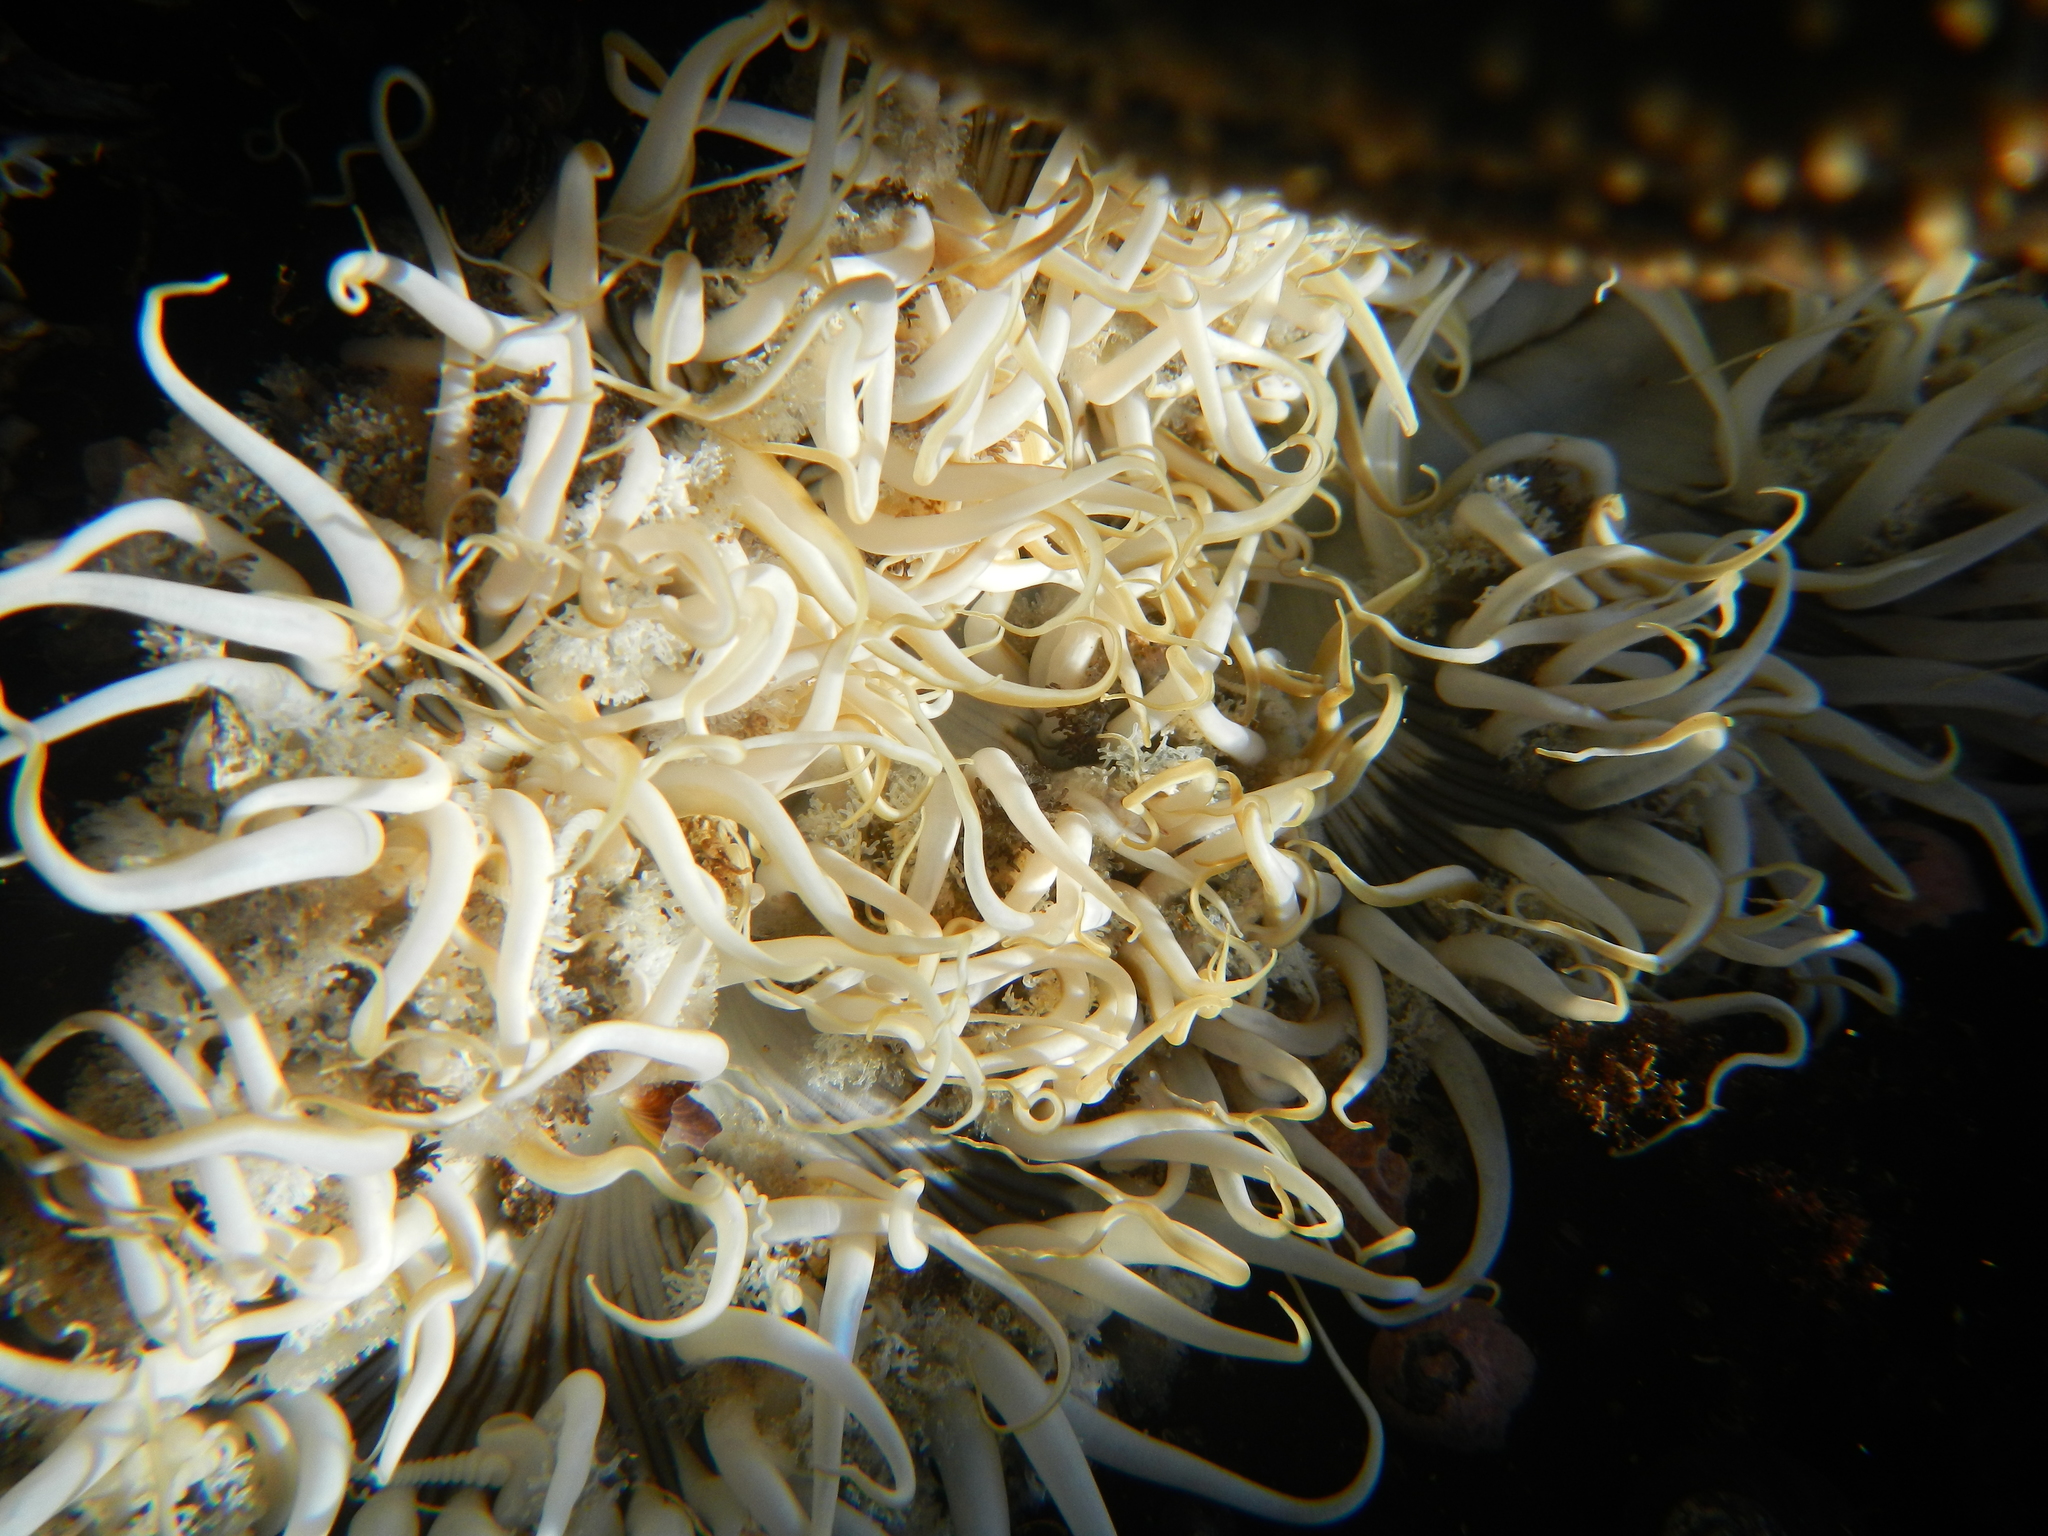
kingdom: Animalia
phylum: Cnidaria
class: Anthozoa
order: Actiniaria
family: Actiniidae
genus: Oulactis
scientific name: Oulactis concinnata
